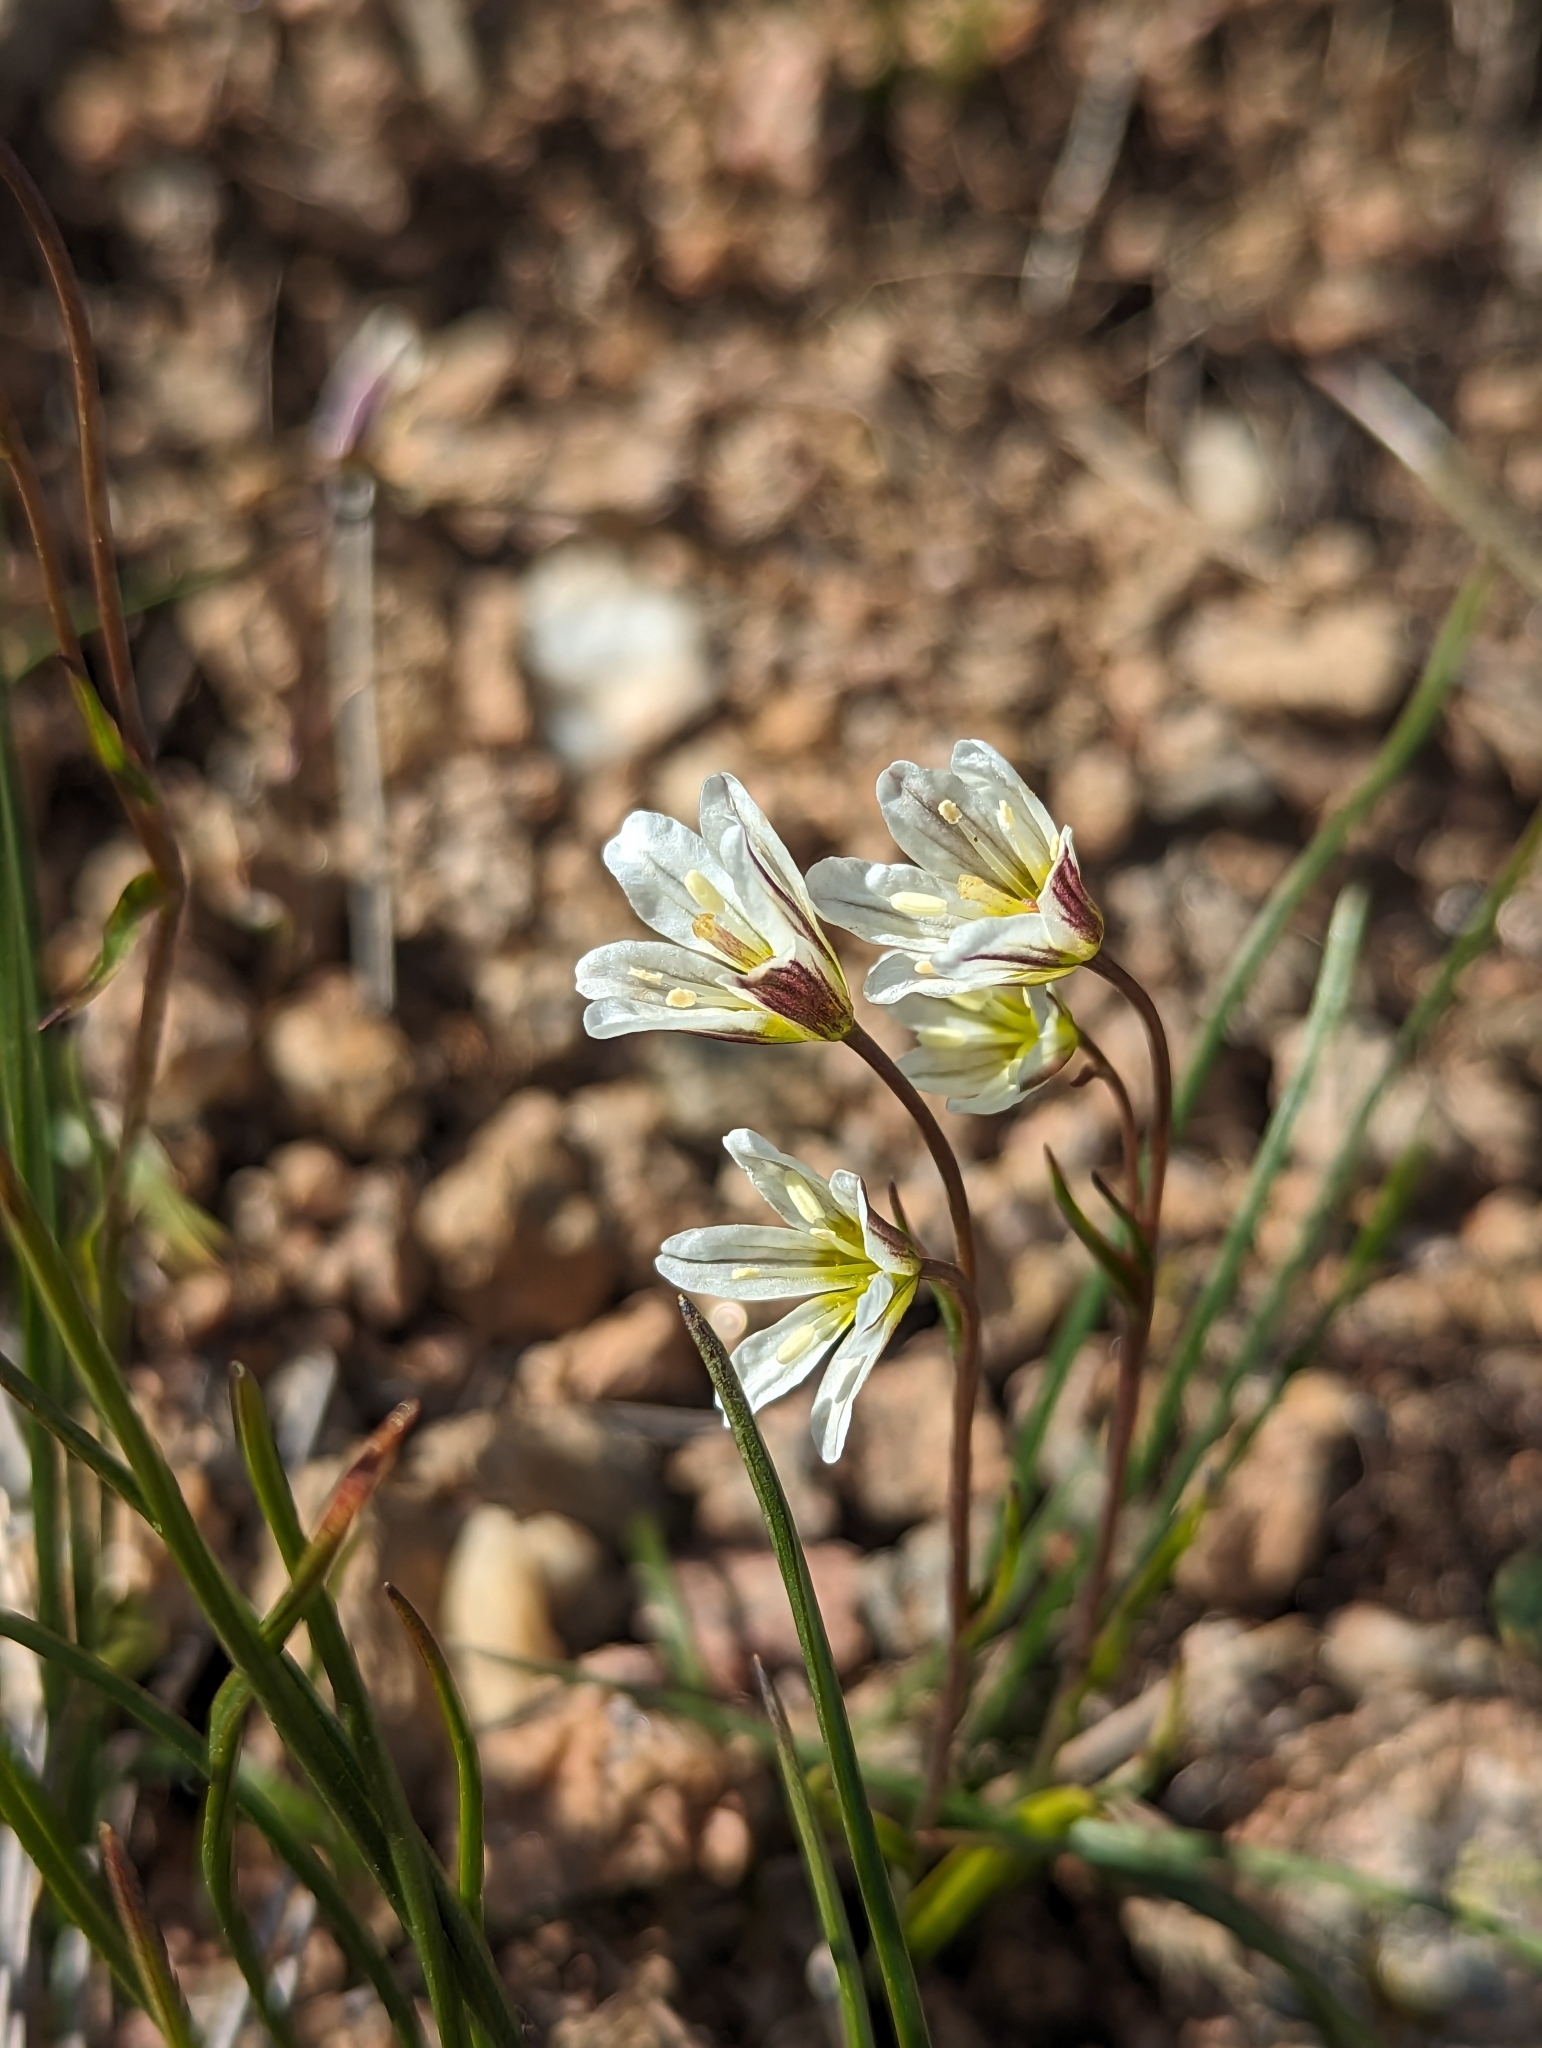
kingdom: Plantae
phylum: Tracheophyta
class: Liliopsida
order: Liliales
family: Liliaceae
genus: Gagea
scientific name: Gagea serotina
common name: Snowdon lily
